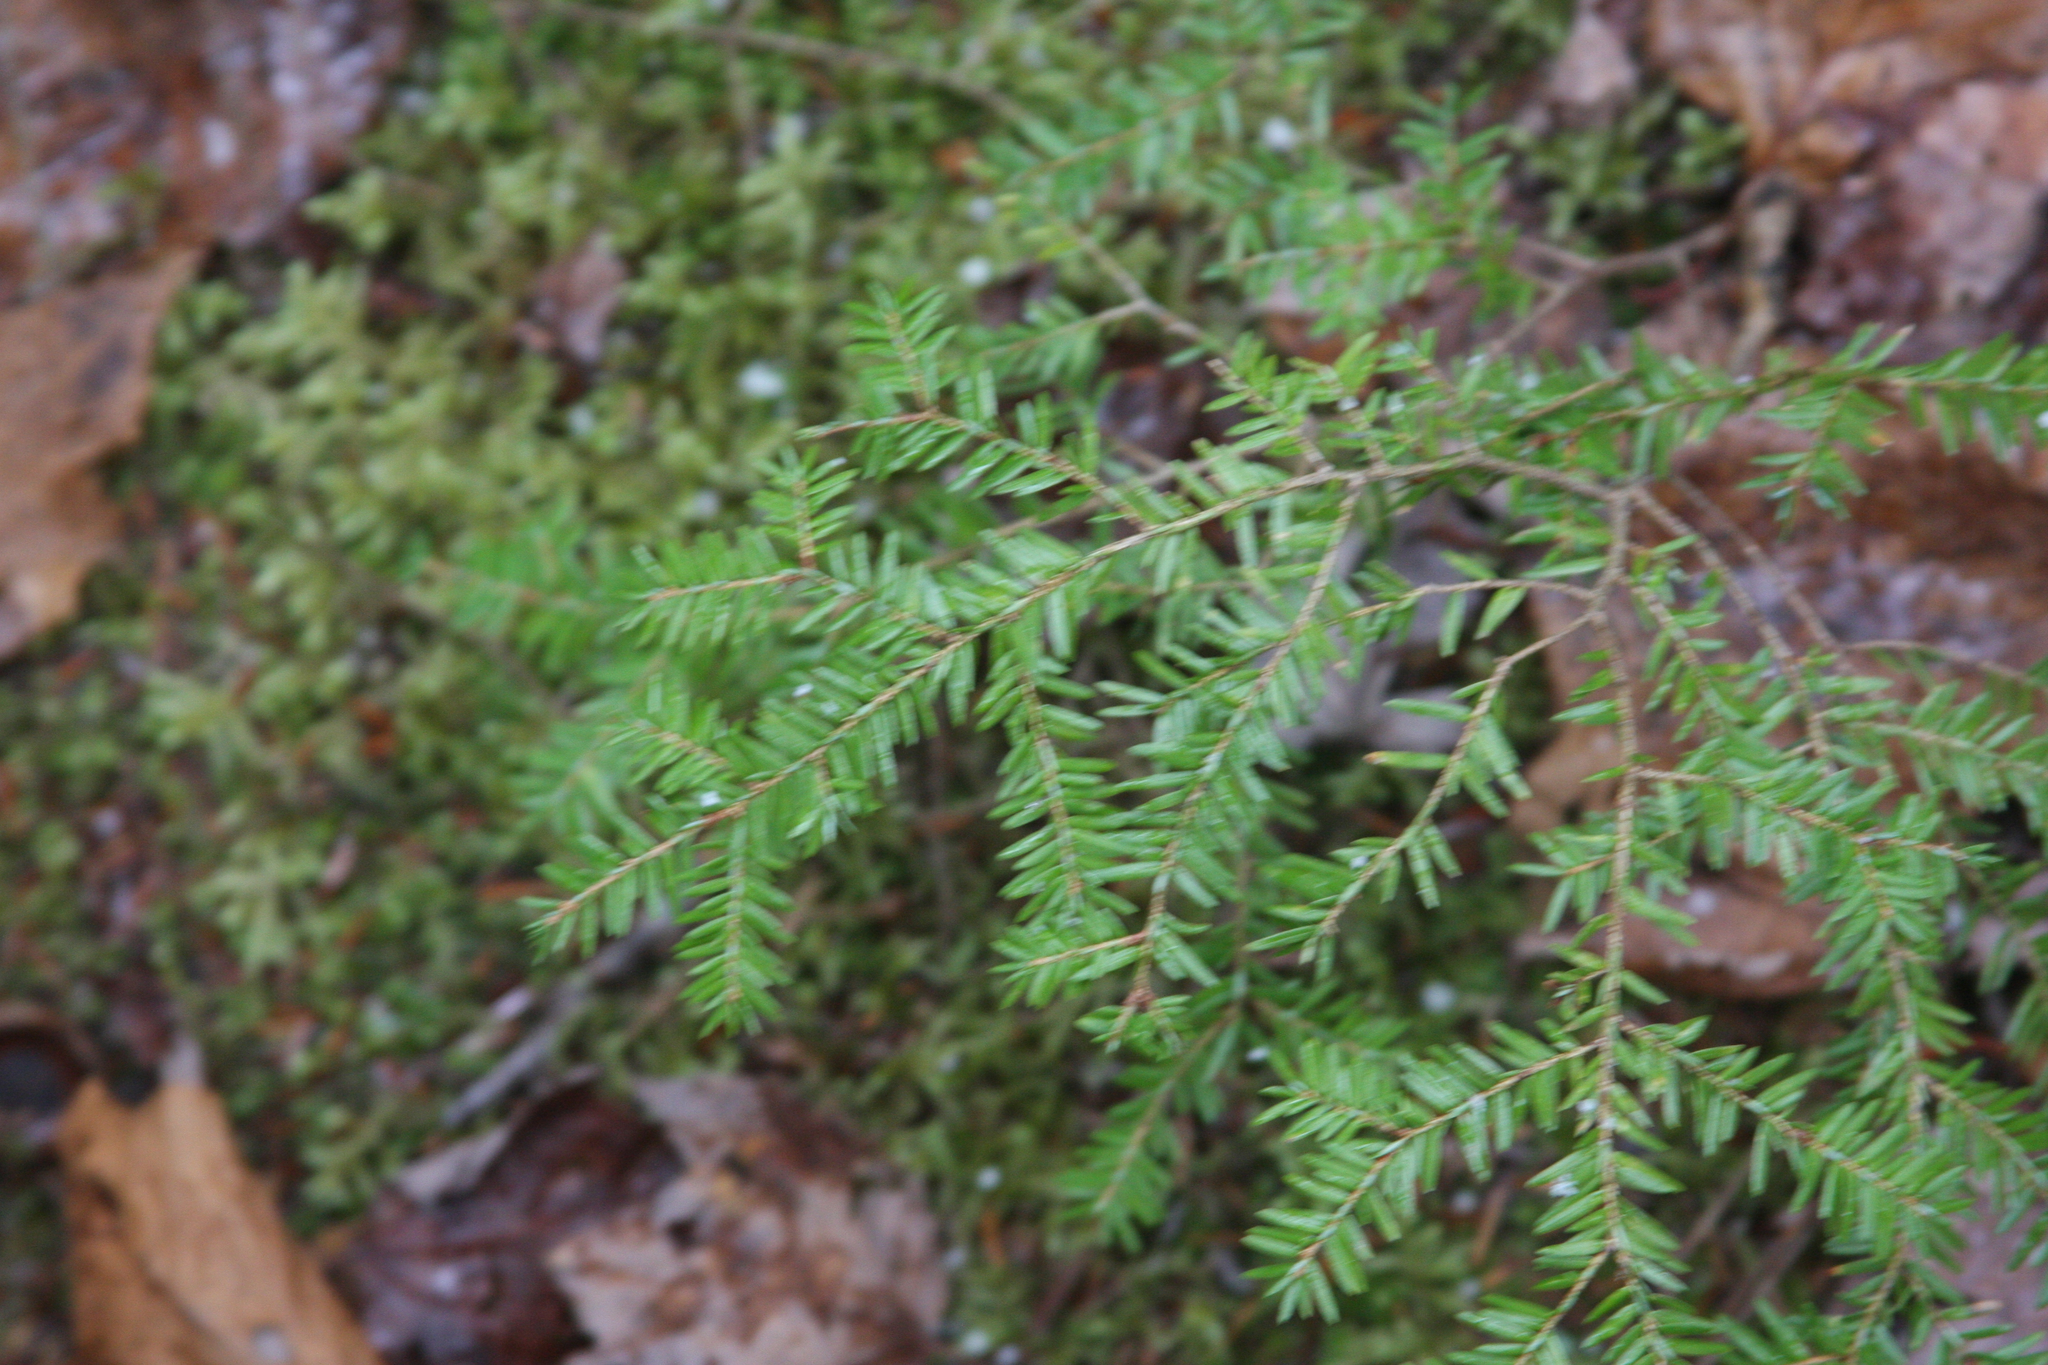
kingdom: Plantae
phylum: Tracheophyta
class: Pinopsida
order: Pinales
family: Pinaceae
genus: Tsuga
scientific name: Tsuga canadensis
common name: Eastern hemlock
